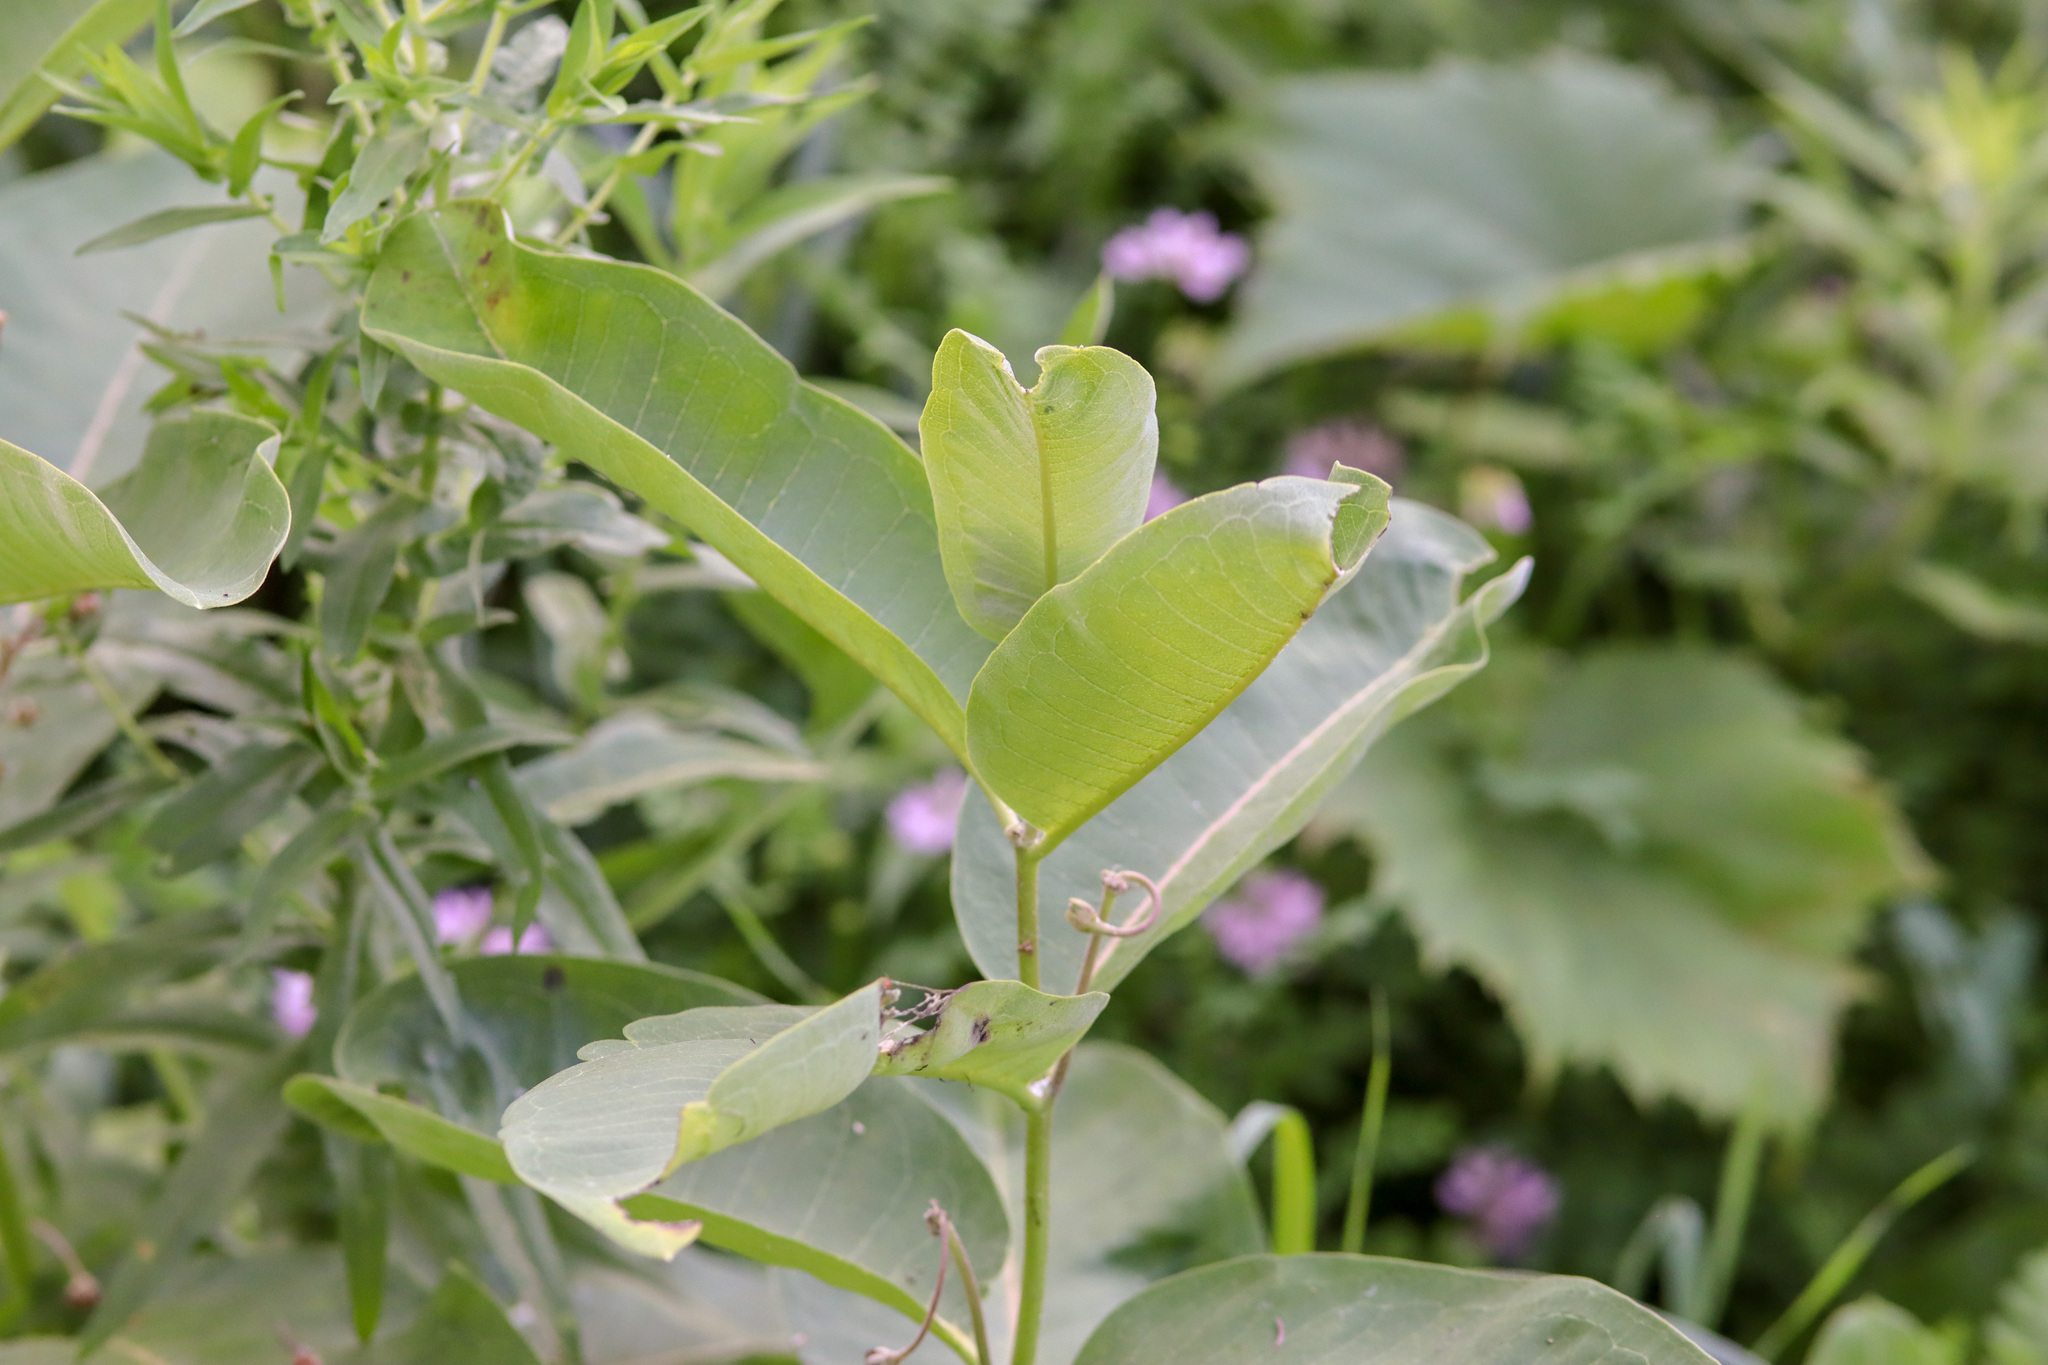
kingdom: Plantae
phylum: Tracheophyta
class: Magnoliopsida
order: Gentianales
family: Apocynaceae
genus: Asclepias
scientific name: Asclepias syriaca
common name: Common milkweed
